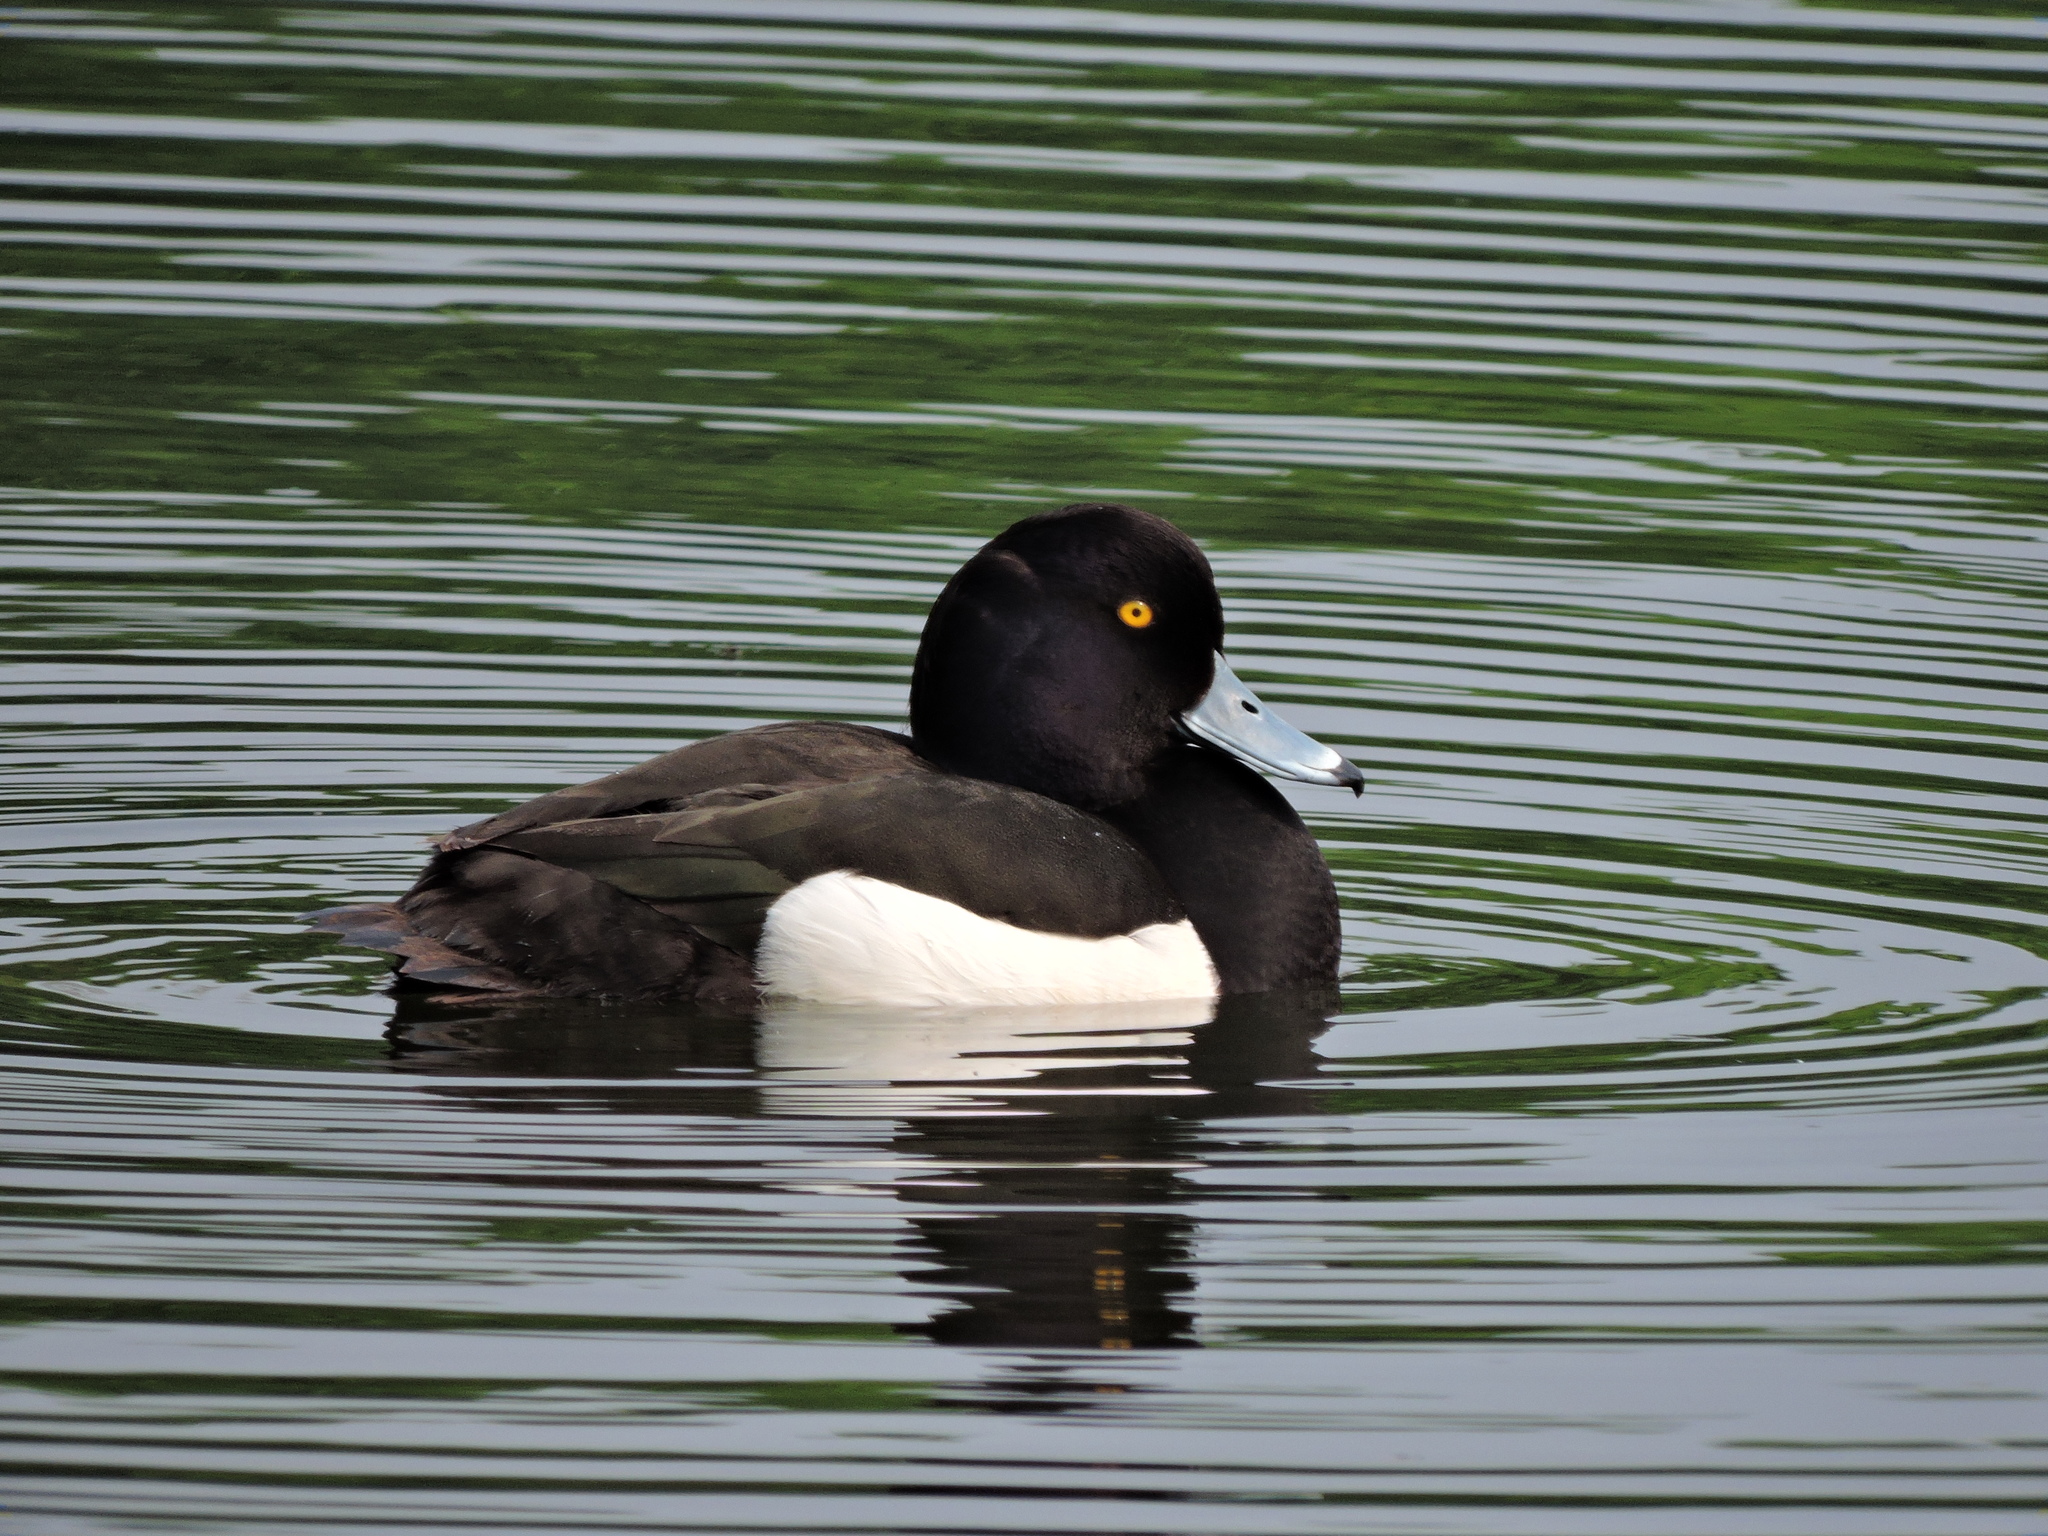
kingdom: Animalia
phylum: Chordata
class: Aves
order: Anseriformes
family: Anatidae
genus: Aythya
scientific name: Aythya fuligula
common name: Tufted duck
